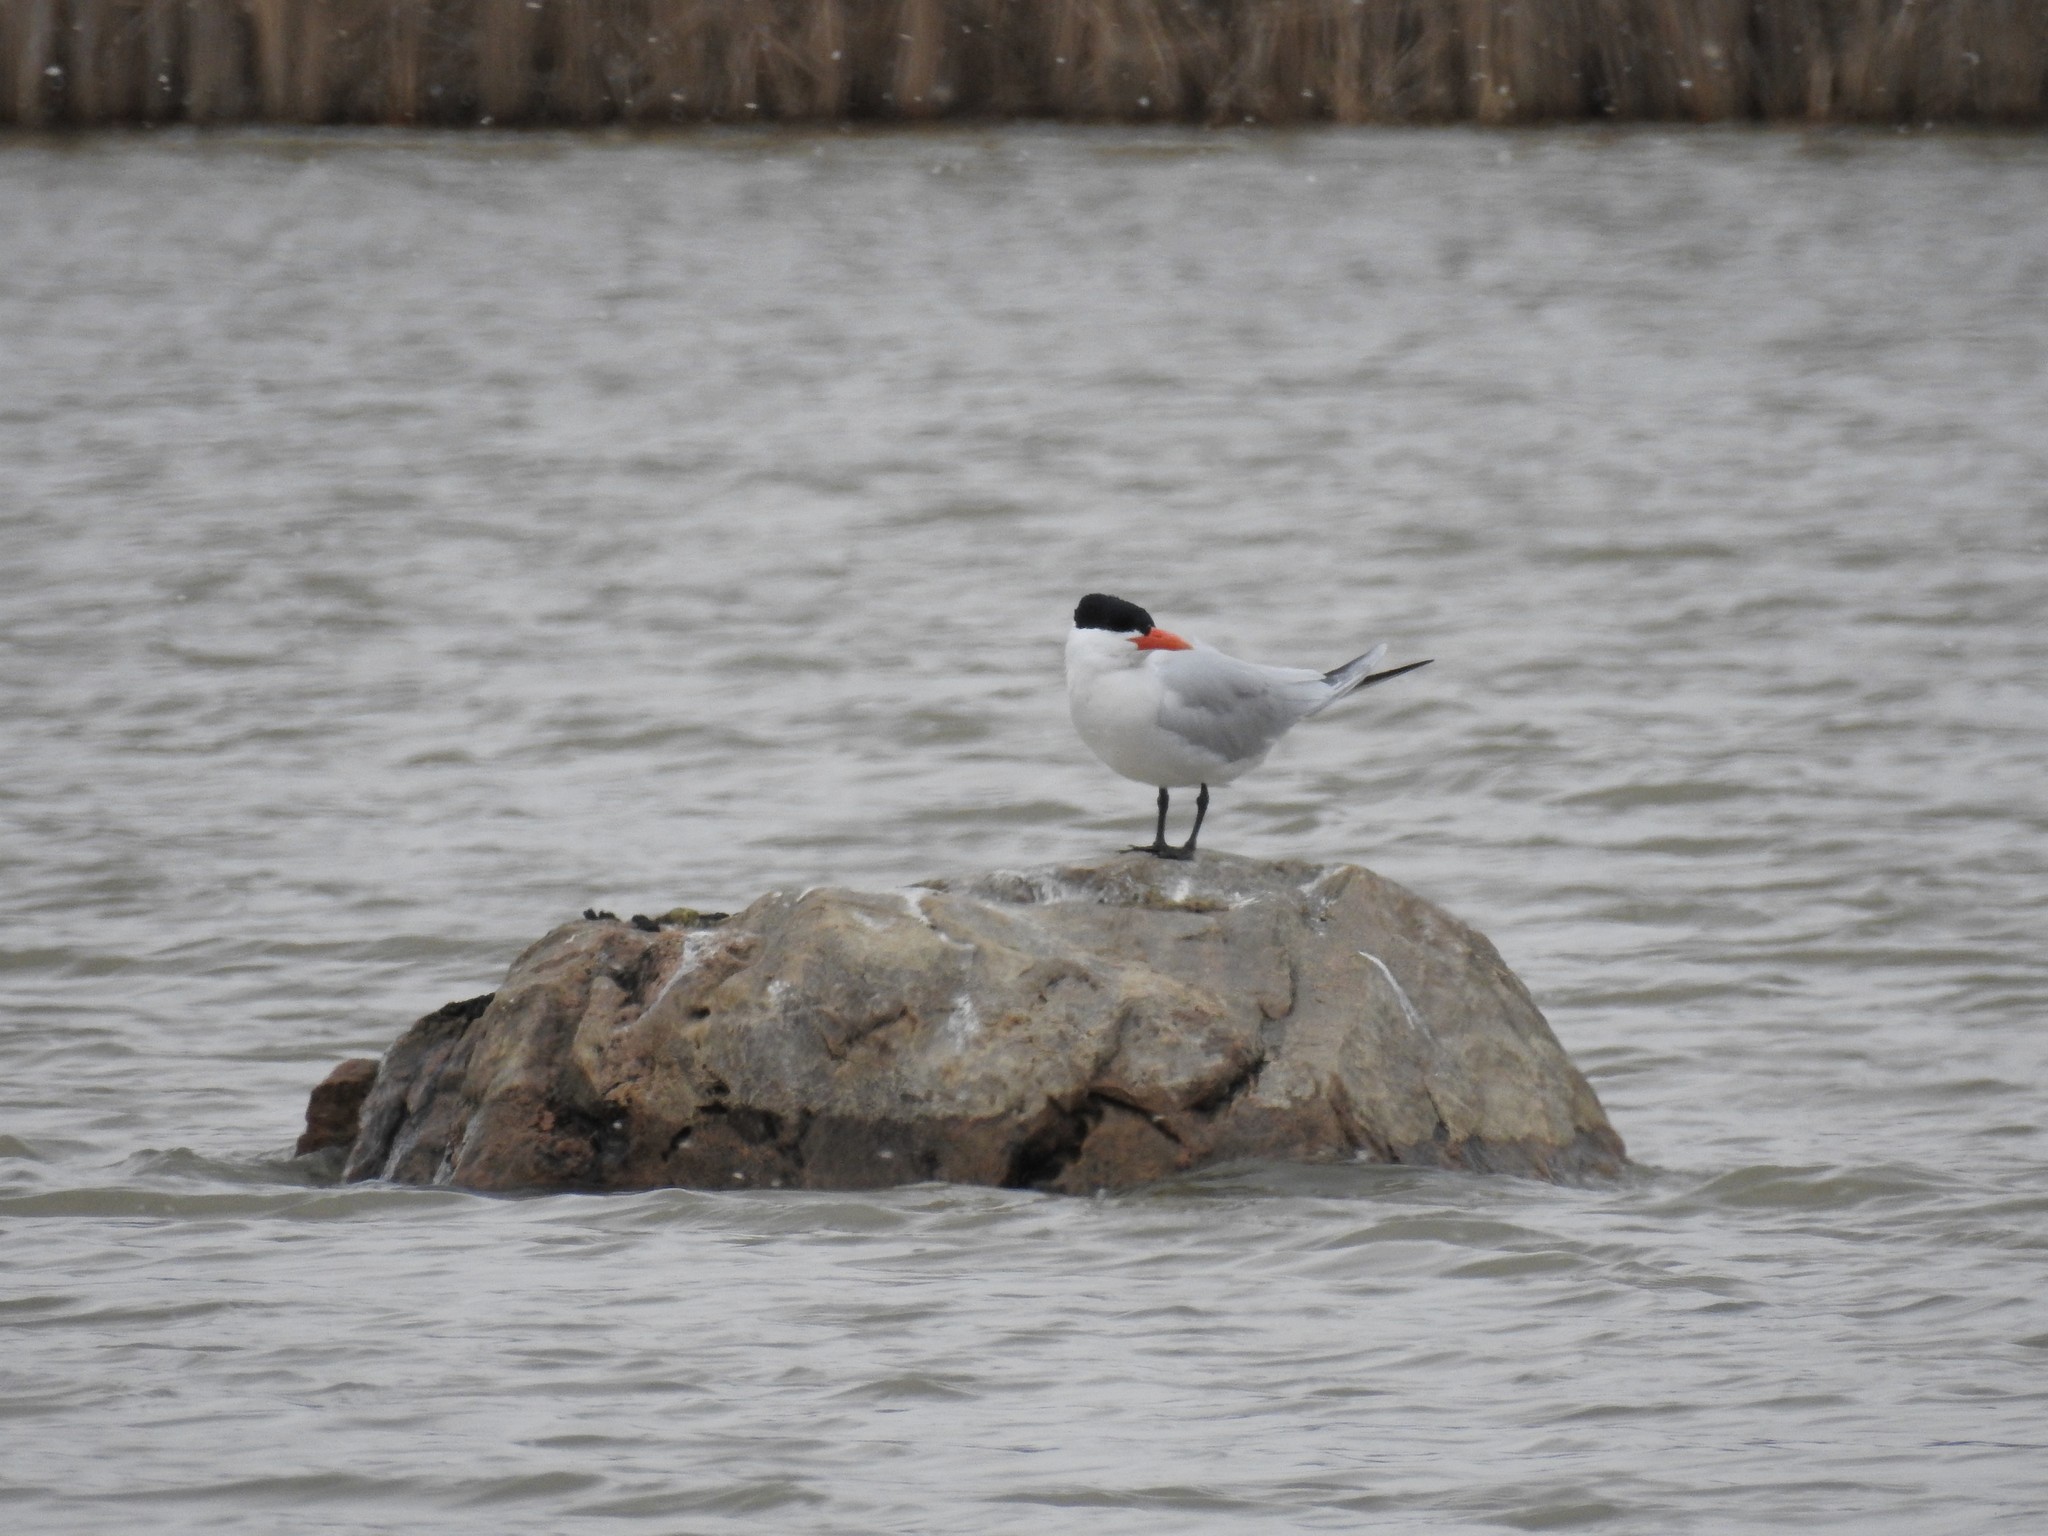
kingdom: Animalia
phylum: Chordata
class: Aves
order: Charadriiformes
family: Laridae
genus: Hydroprogne
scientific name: Hydroprogne caspia
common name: Caspian tern
